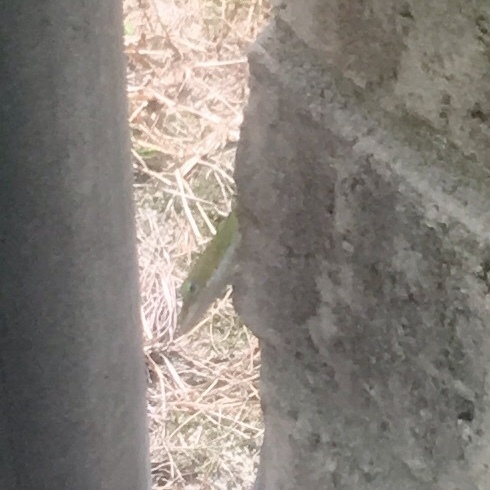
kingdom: Animalia
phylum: Chordata
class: Squamata
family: Dactyloidae
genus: Anolis
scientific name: Anolis carolinensis
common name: Green anole
